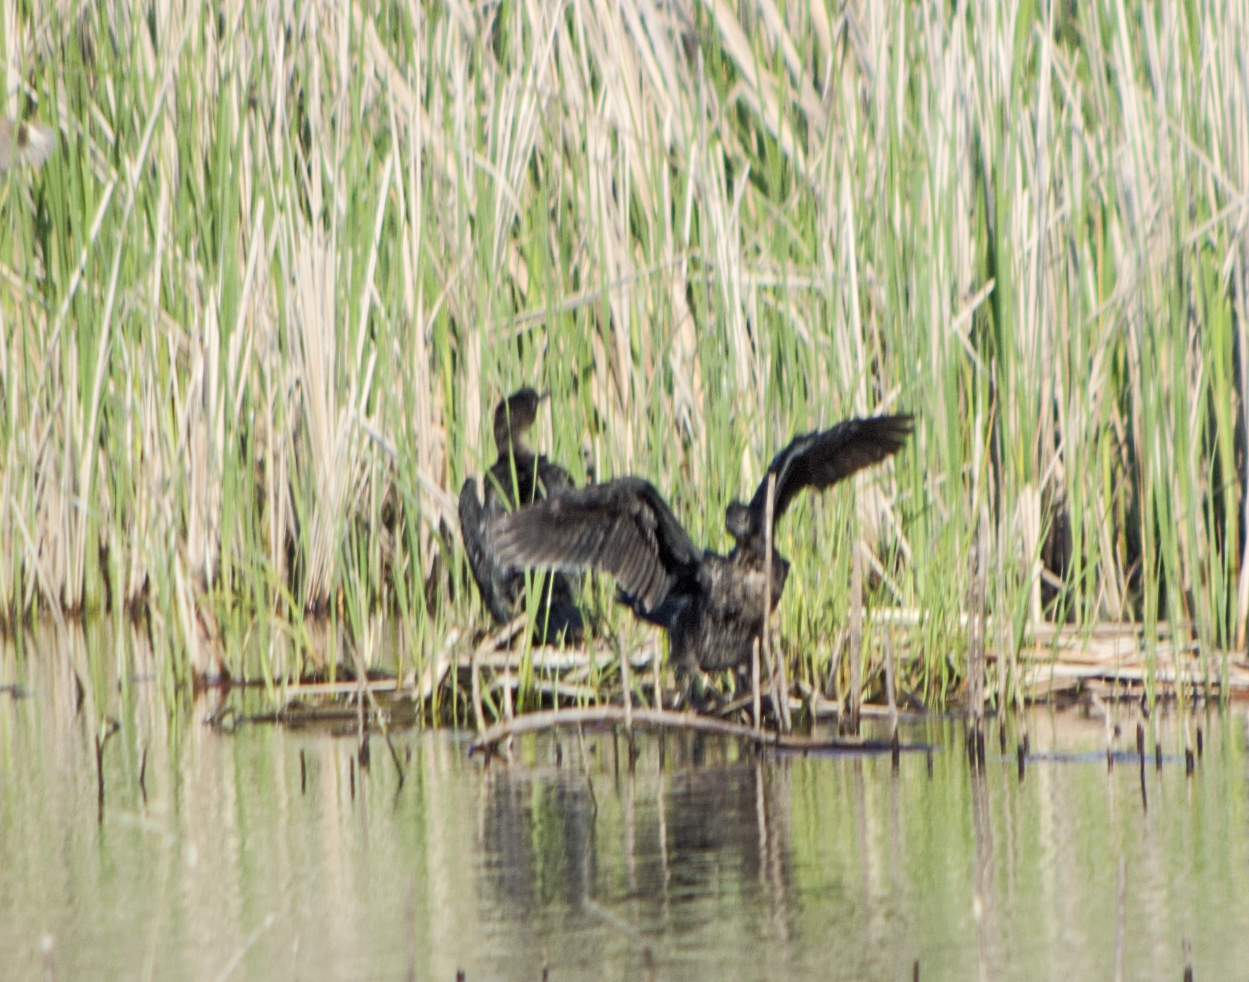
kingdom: Animalia
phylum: Chordata
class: Aves
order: Suliformes
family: Phalacrocoracidae
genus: Microcarbo
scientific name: Microcarbo pygmaeus
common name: Pygmy cormorant
